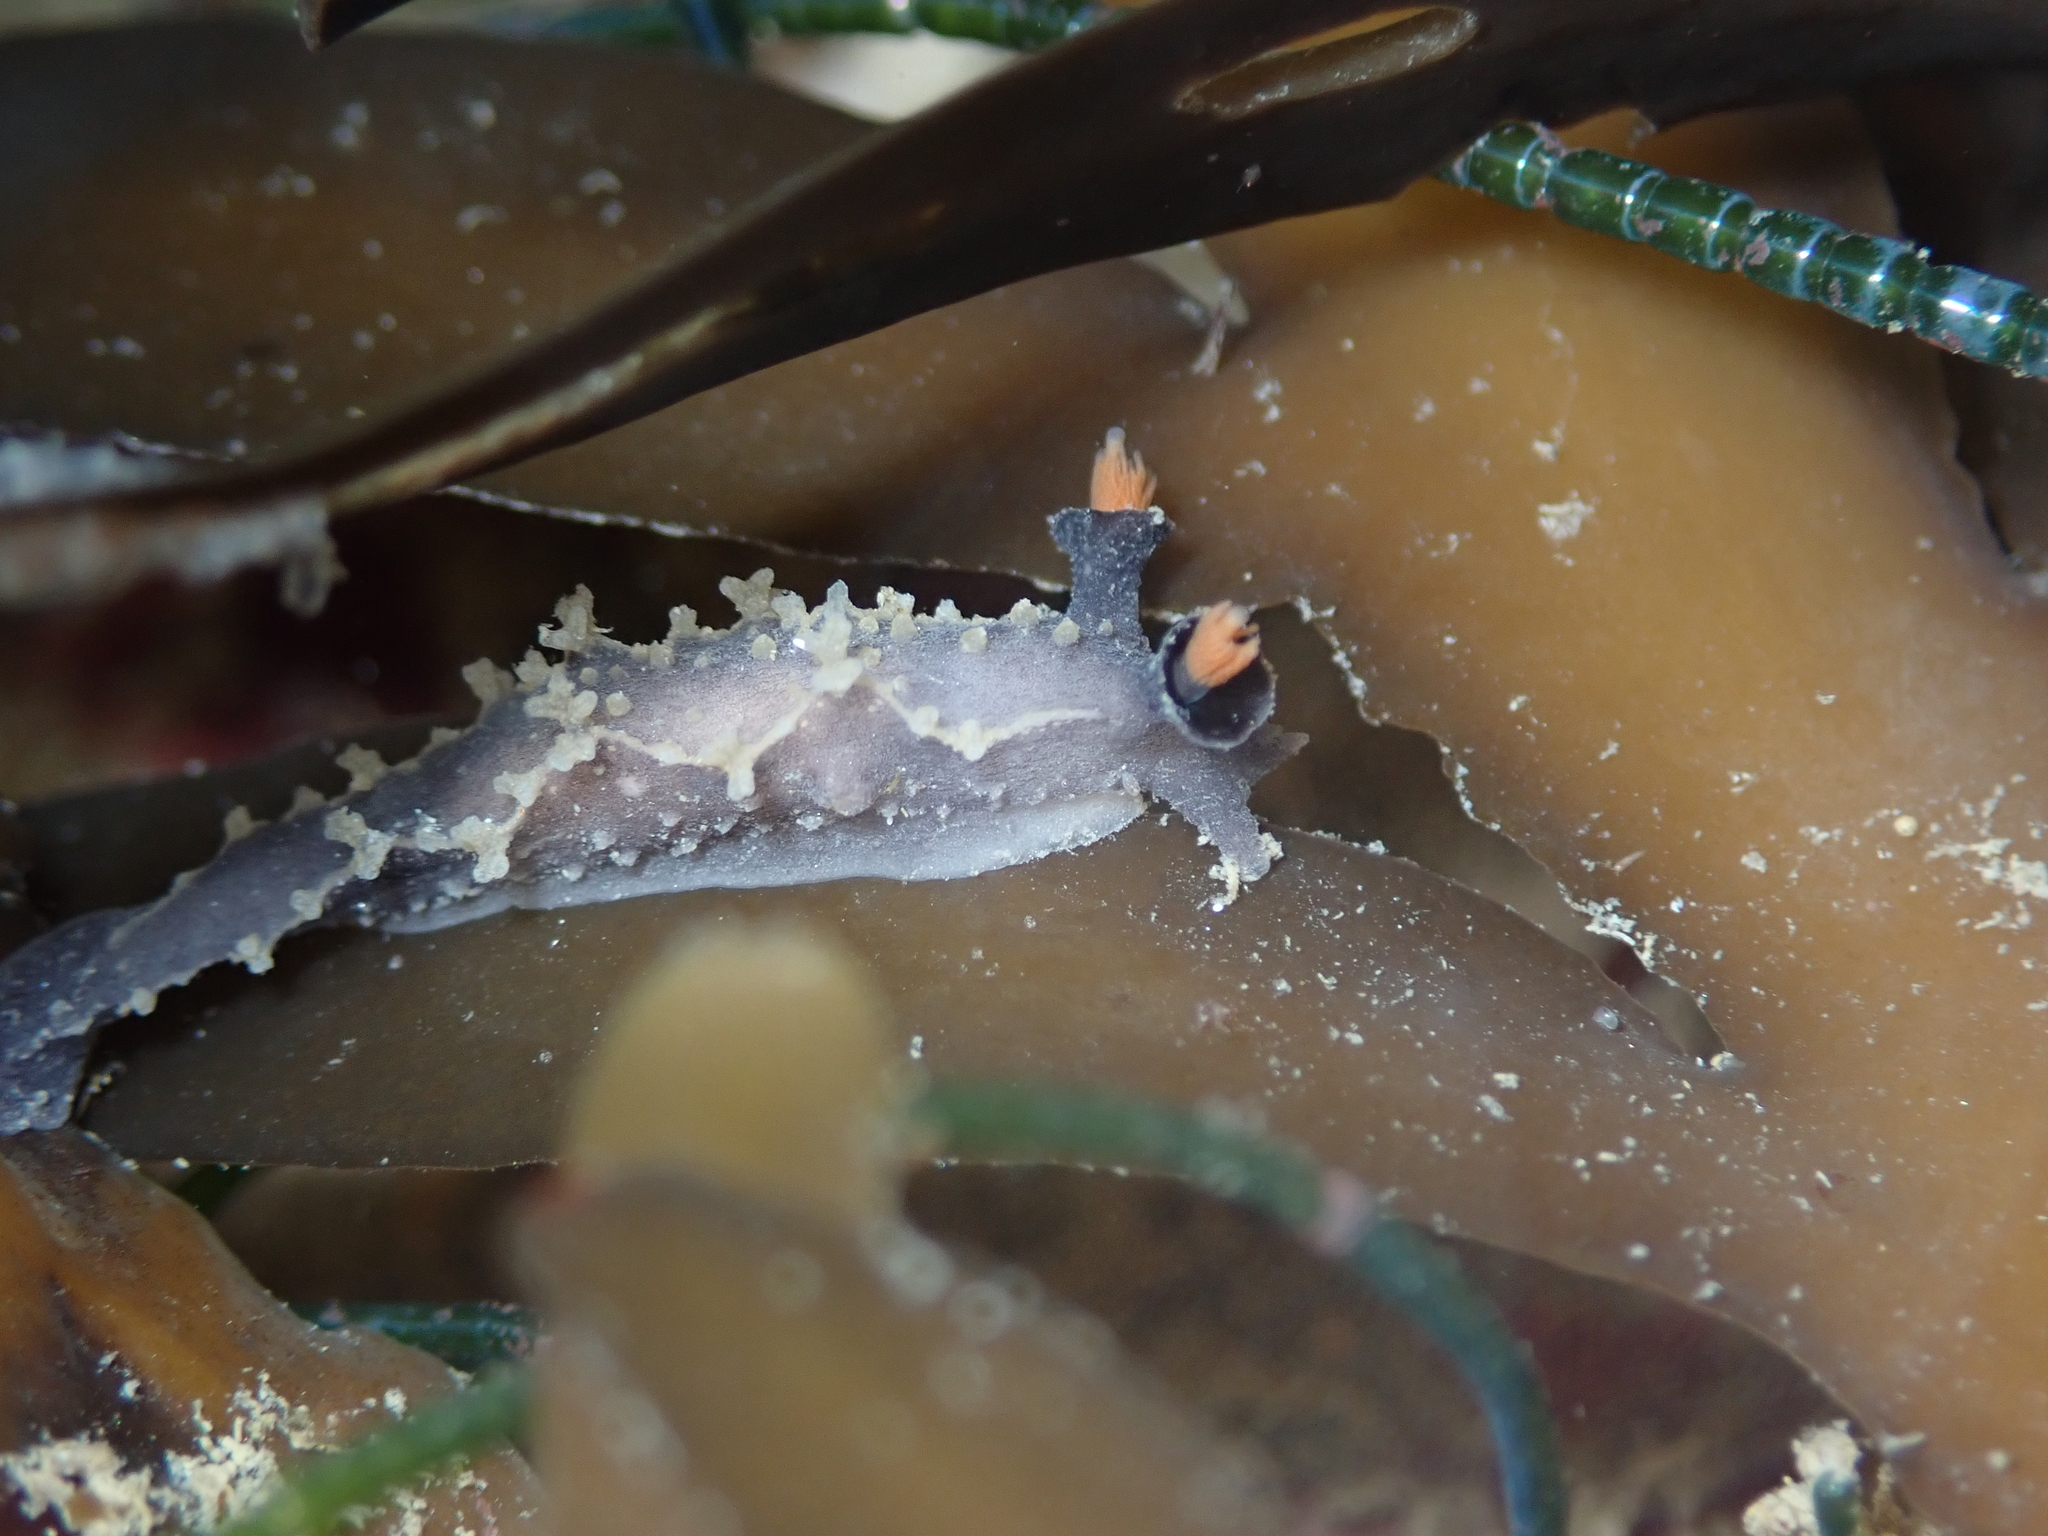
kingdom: Animalia
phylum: Mollusca
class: Gastropoda
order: Nudibranchia
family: Tritoniidae
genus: Tritonia
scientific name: Tritonia flemingi
